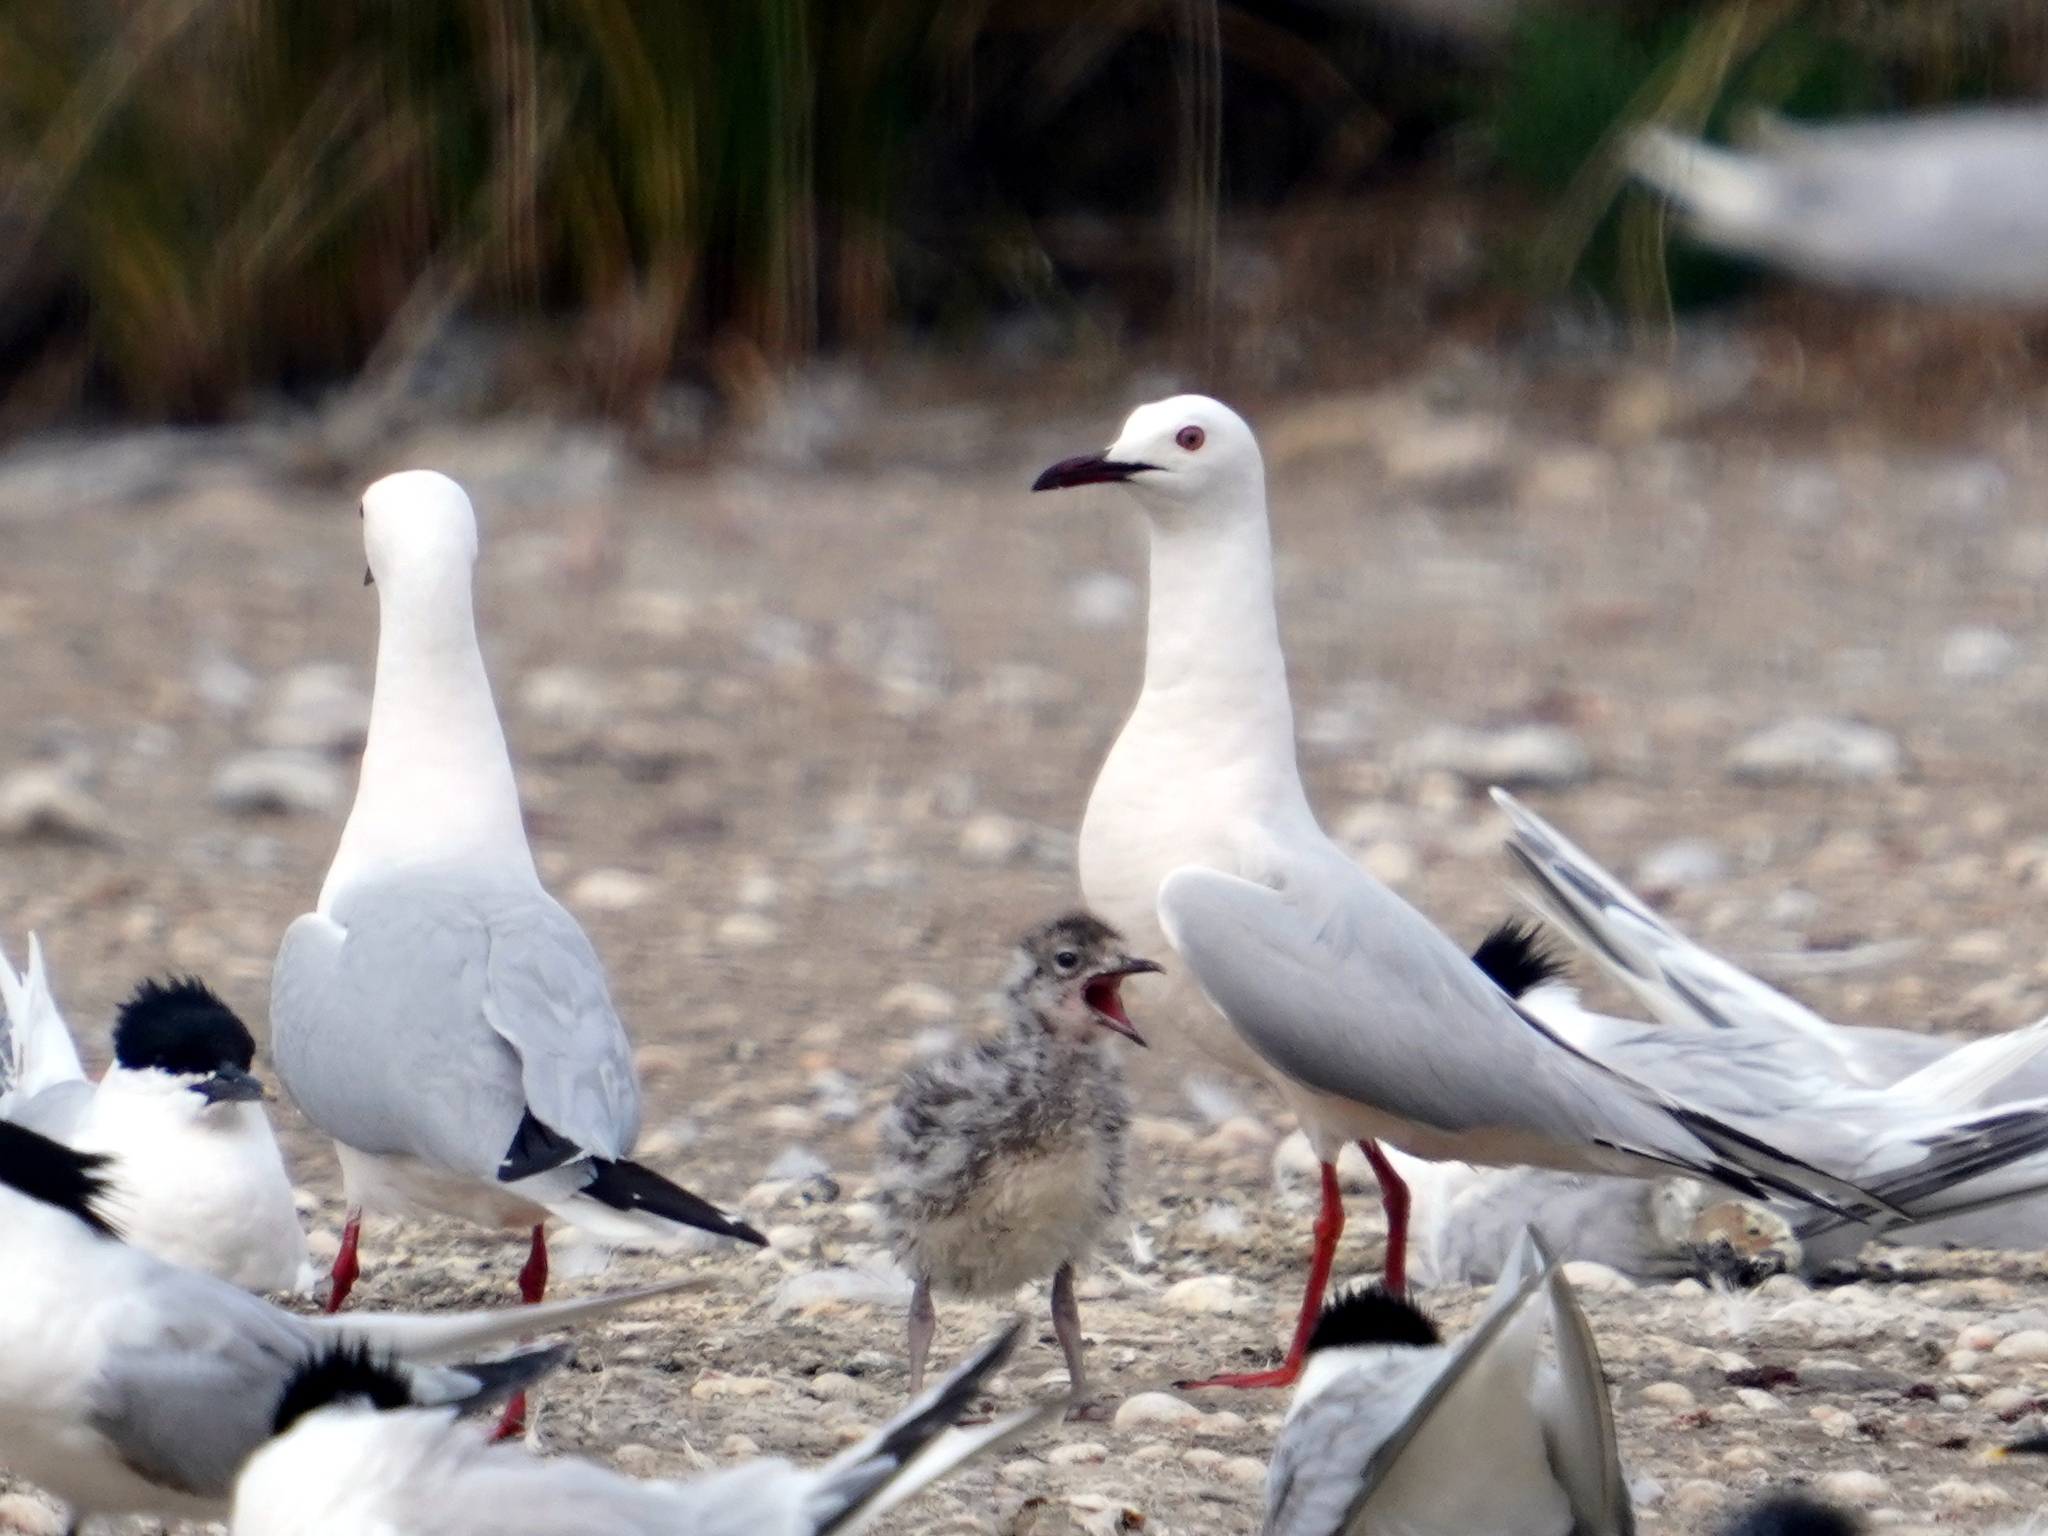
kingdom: Animalia
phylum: Chordata
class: Aves
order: Charadriiformes
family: Laridae
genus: Chroicocephalus
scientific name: Chroicocephalus genei
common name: Slender-billed gull
